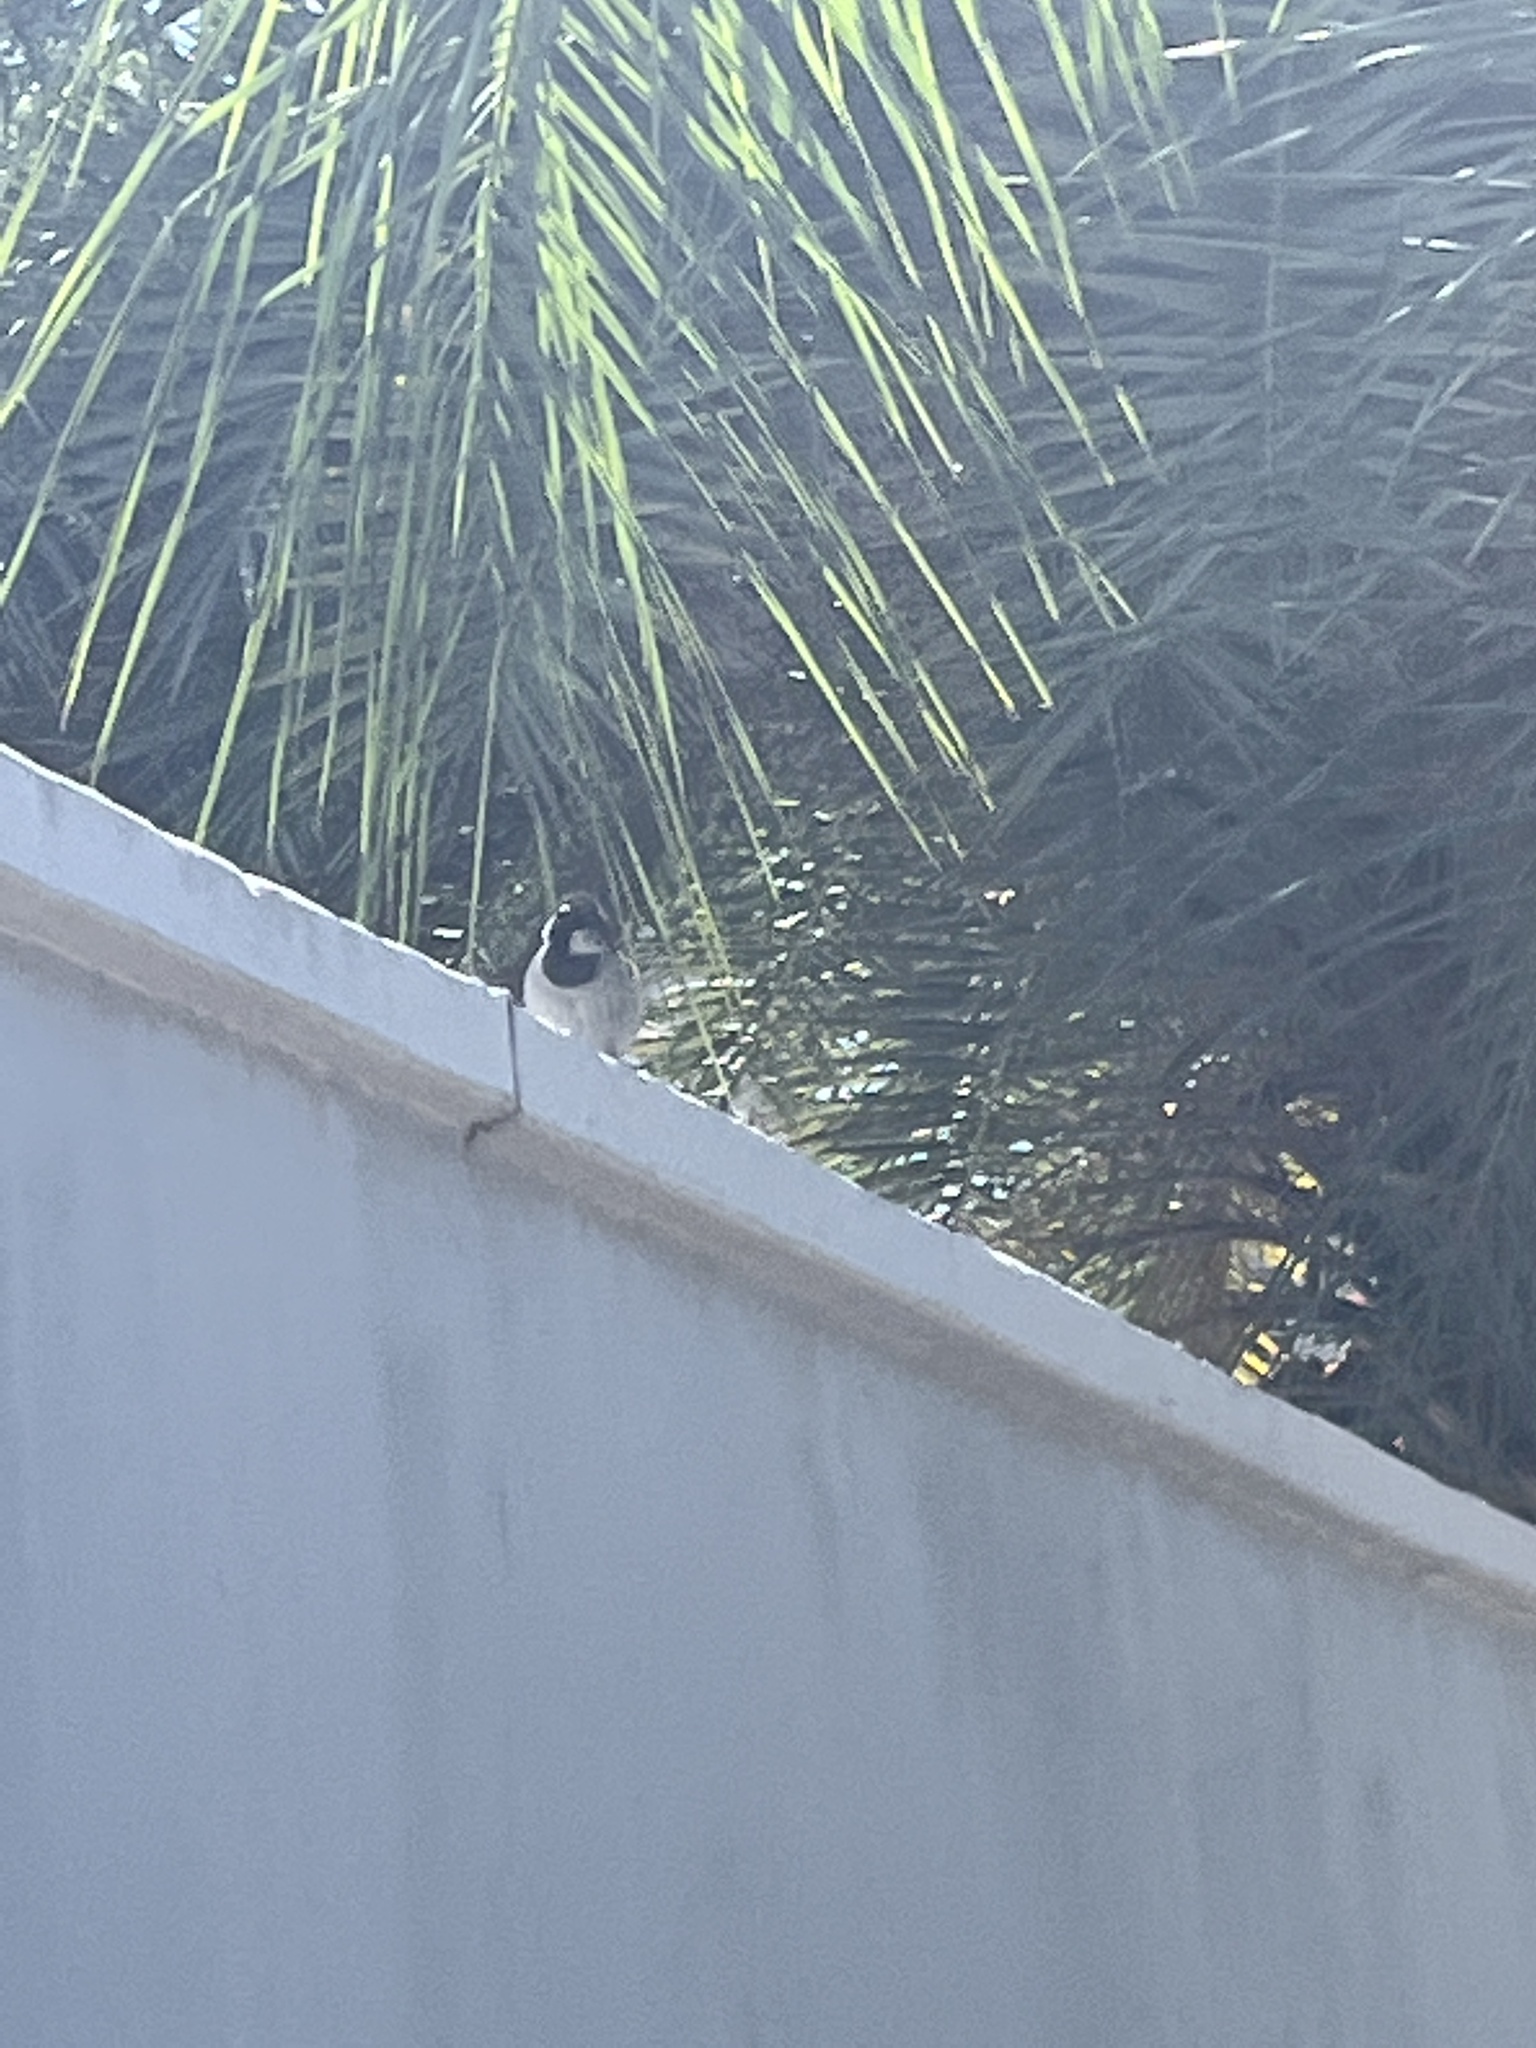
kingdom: Animalia
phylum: Chordata
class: Aves
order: Passeriformes
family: Passeridae
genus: Passer
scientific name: Passer domesticus
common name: House sparrow
